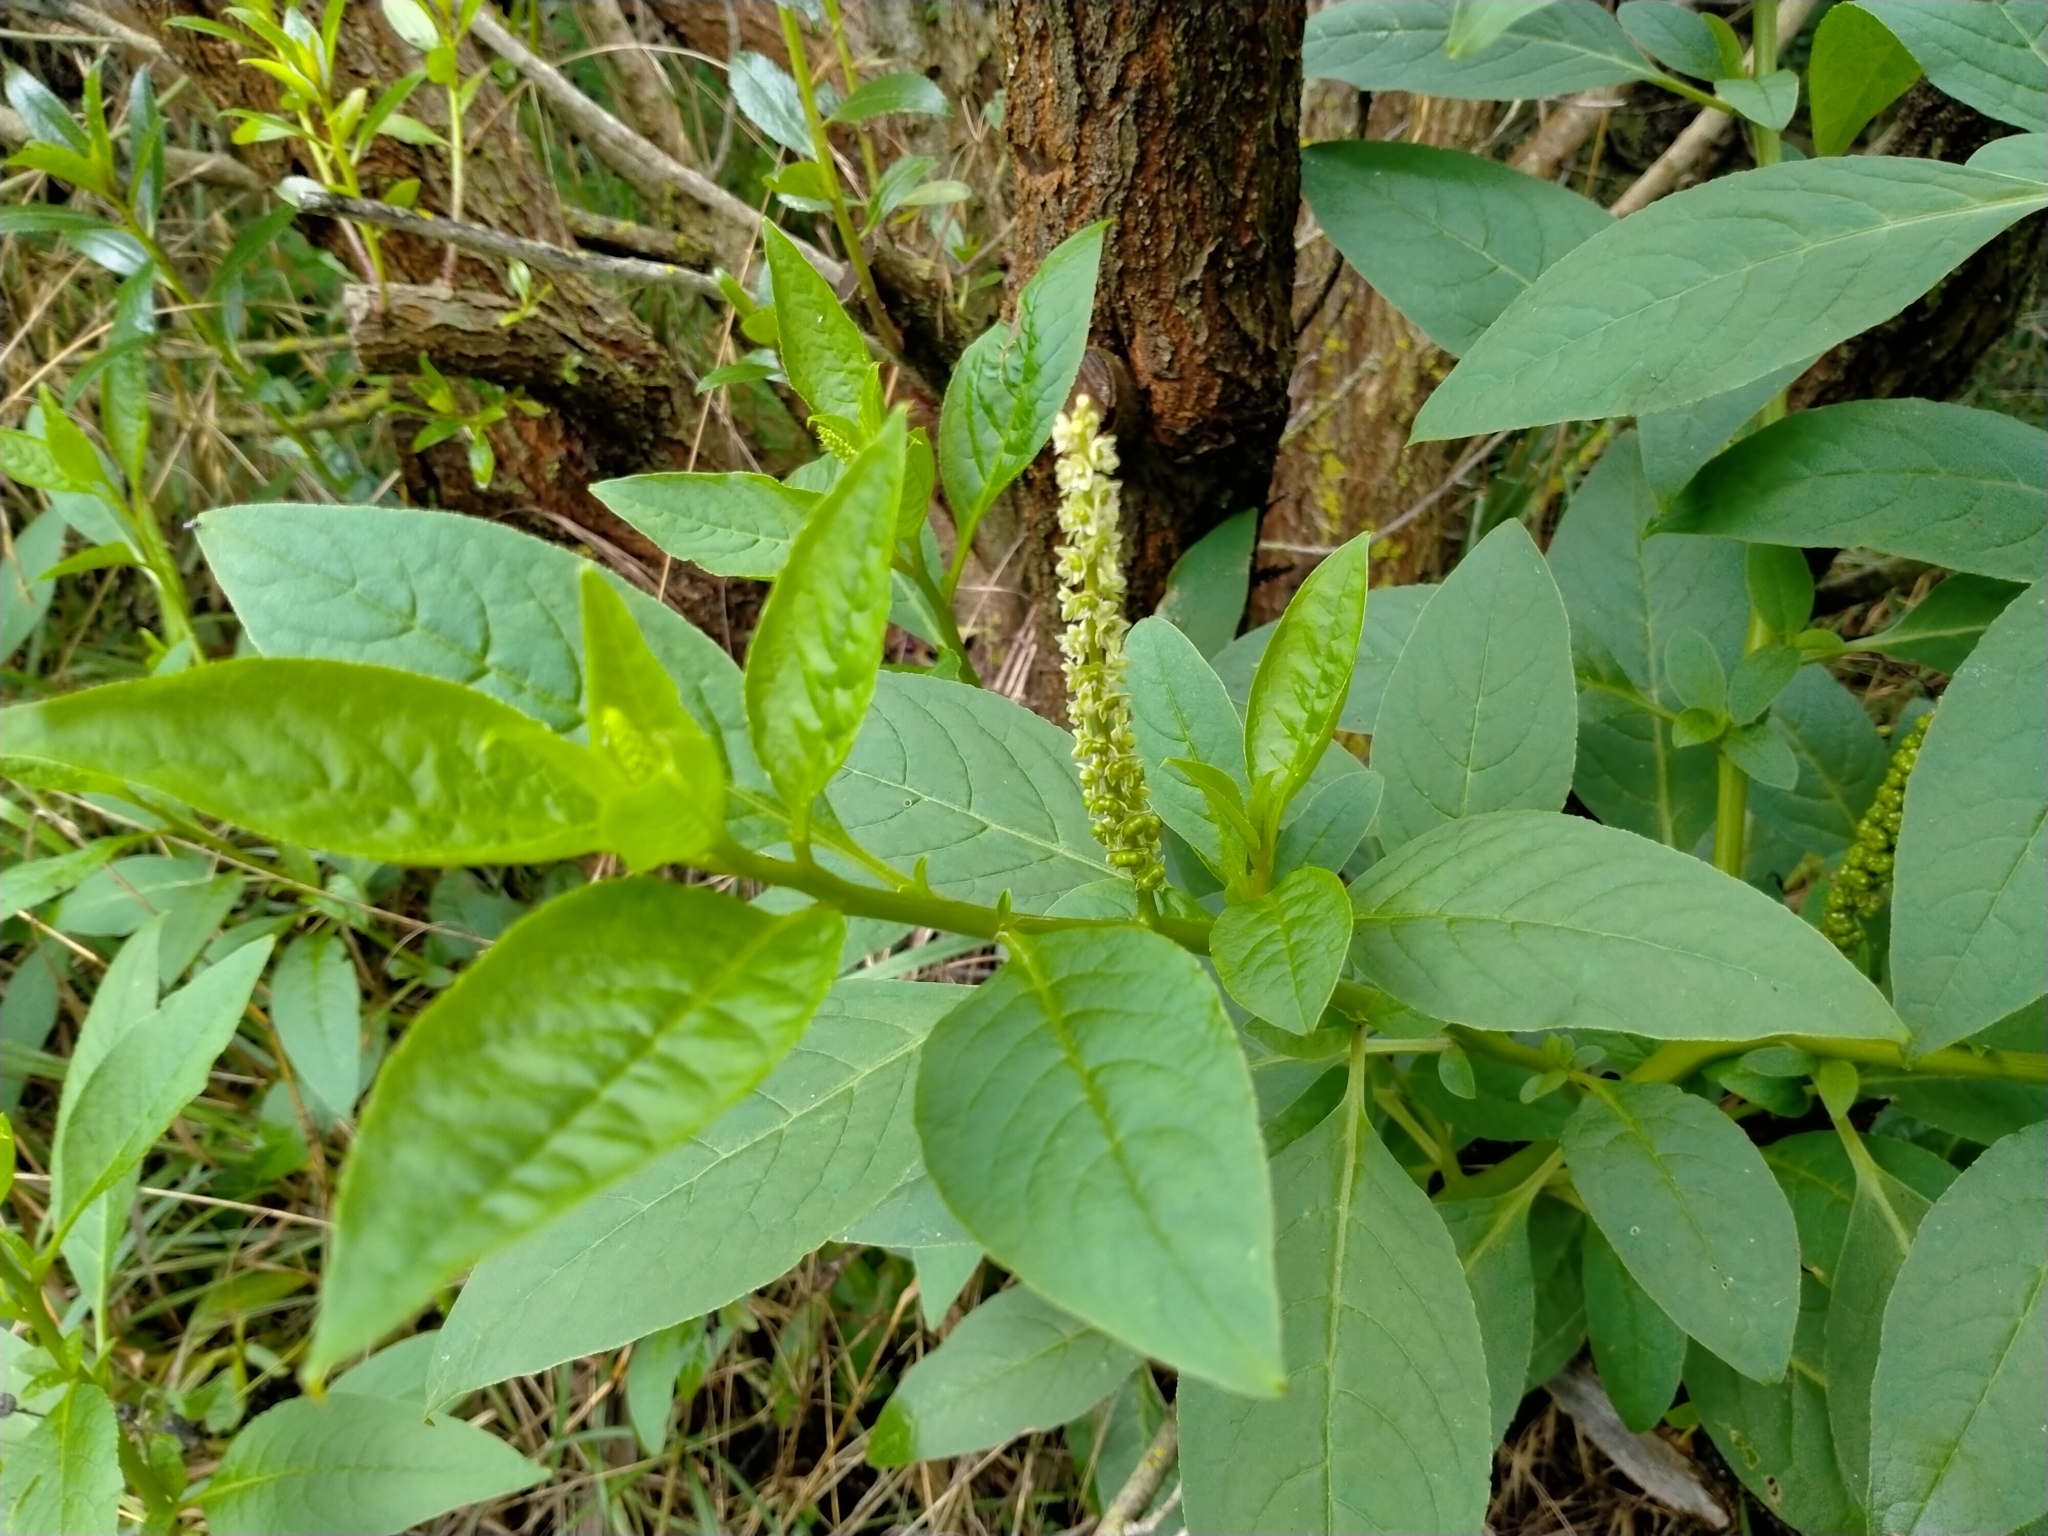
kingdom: Plantae
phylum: Tracheophyta
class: Magnoliopsida
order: Caryophyllales
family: Phytolaccaceae
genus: Phytolacca
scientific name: Phytolacca icosandra
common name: Button pokeweed
